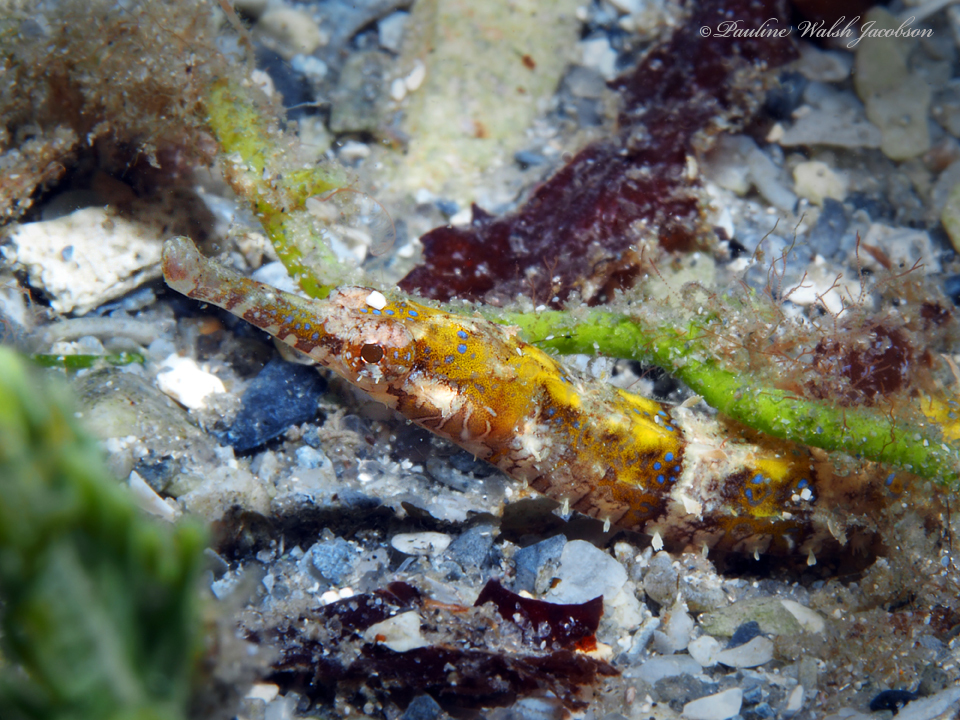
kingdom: Animalia
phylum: Chordata
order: Syngnathiformes
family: Syngnathidae
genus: Cosmocampus
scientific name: Cosmocampus elucens
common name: Poey's pipefish
